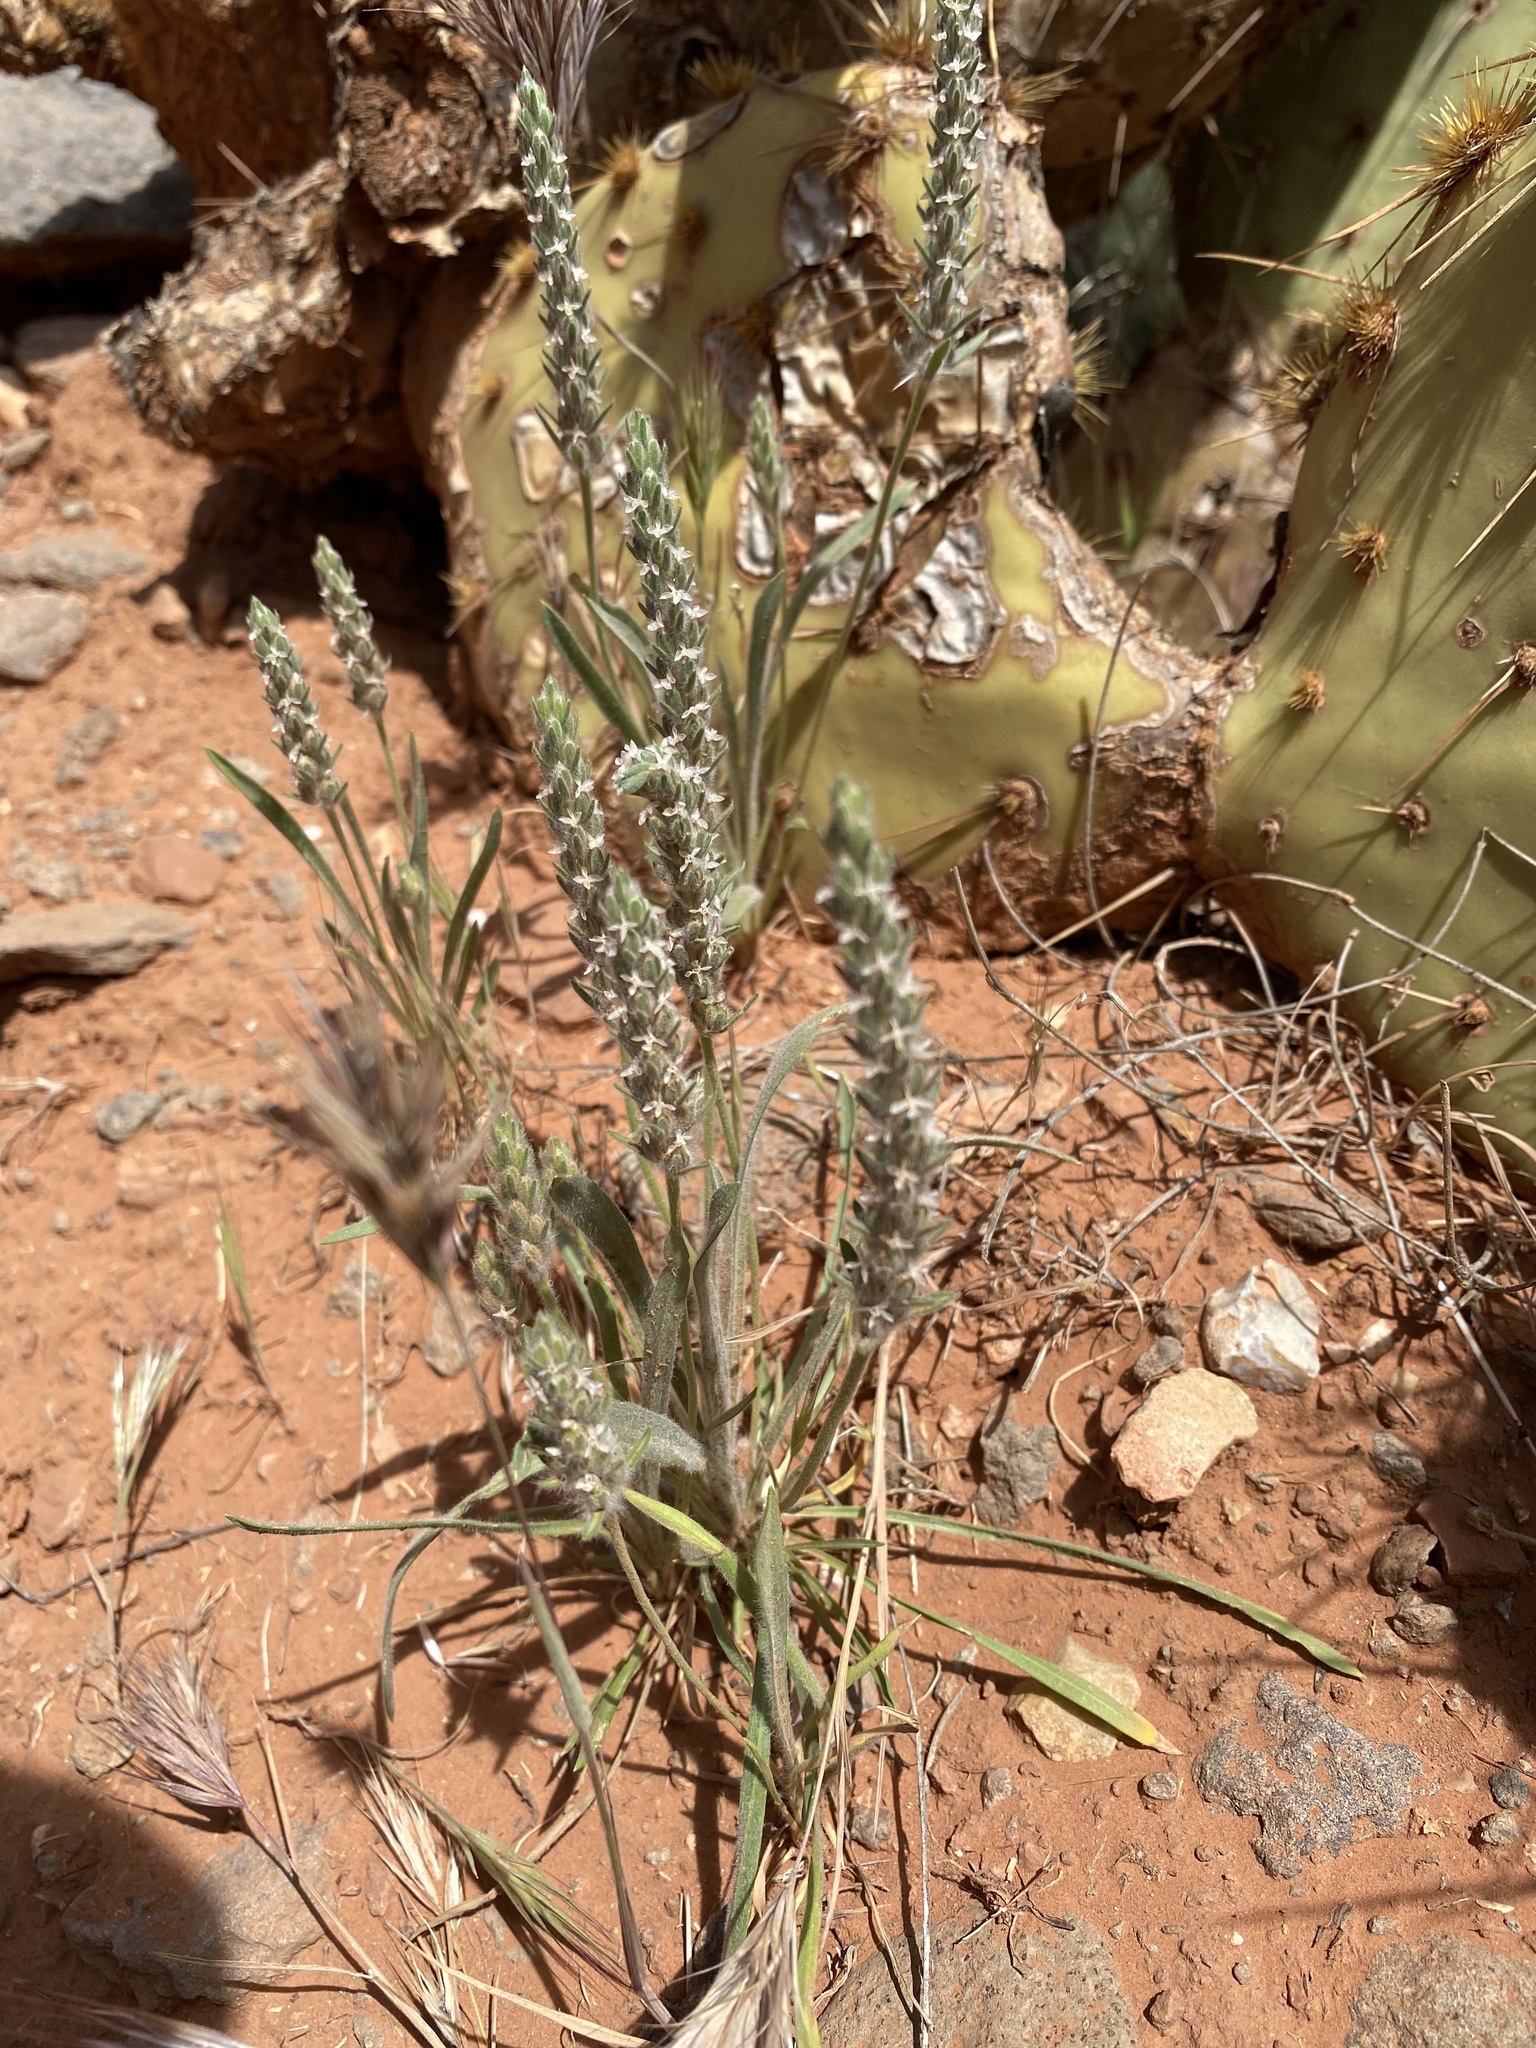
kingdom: Plantae
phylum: Tracheophyta
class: Magnoliopsida
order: Lamiales
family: Plantaginaceae
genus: Plantago
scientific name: Plantago patagonica
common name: Patagonia indian-wheat
